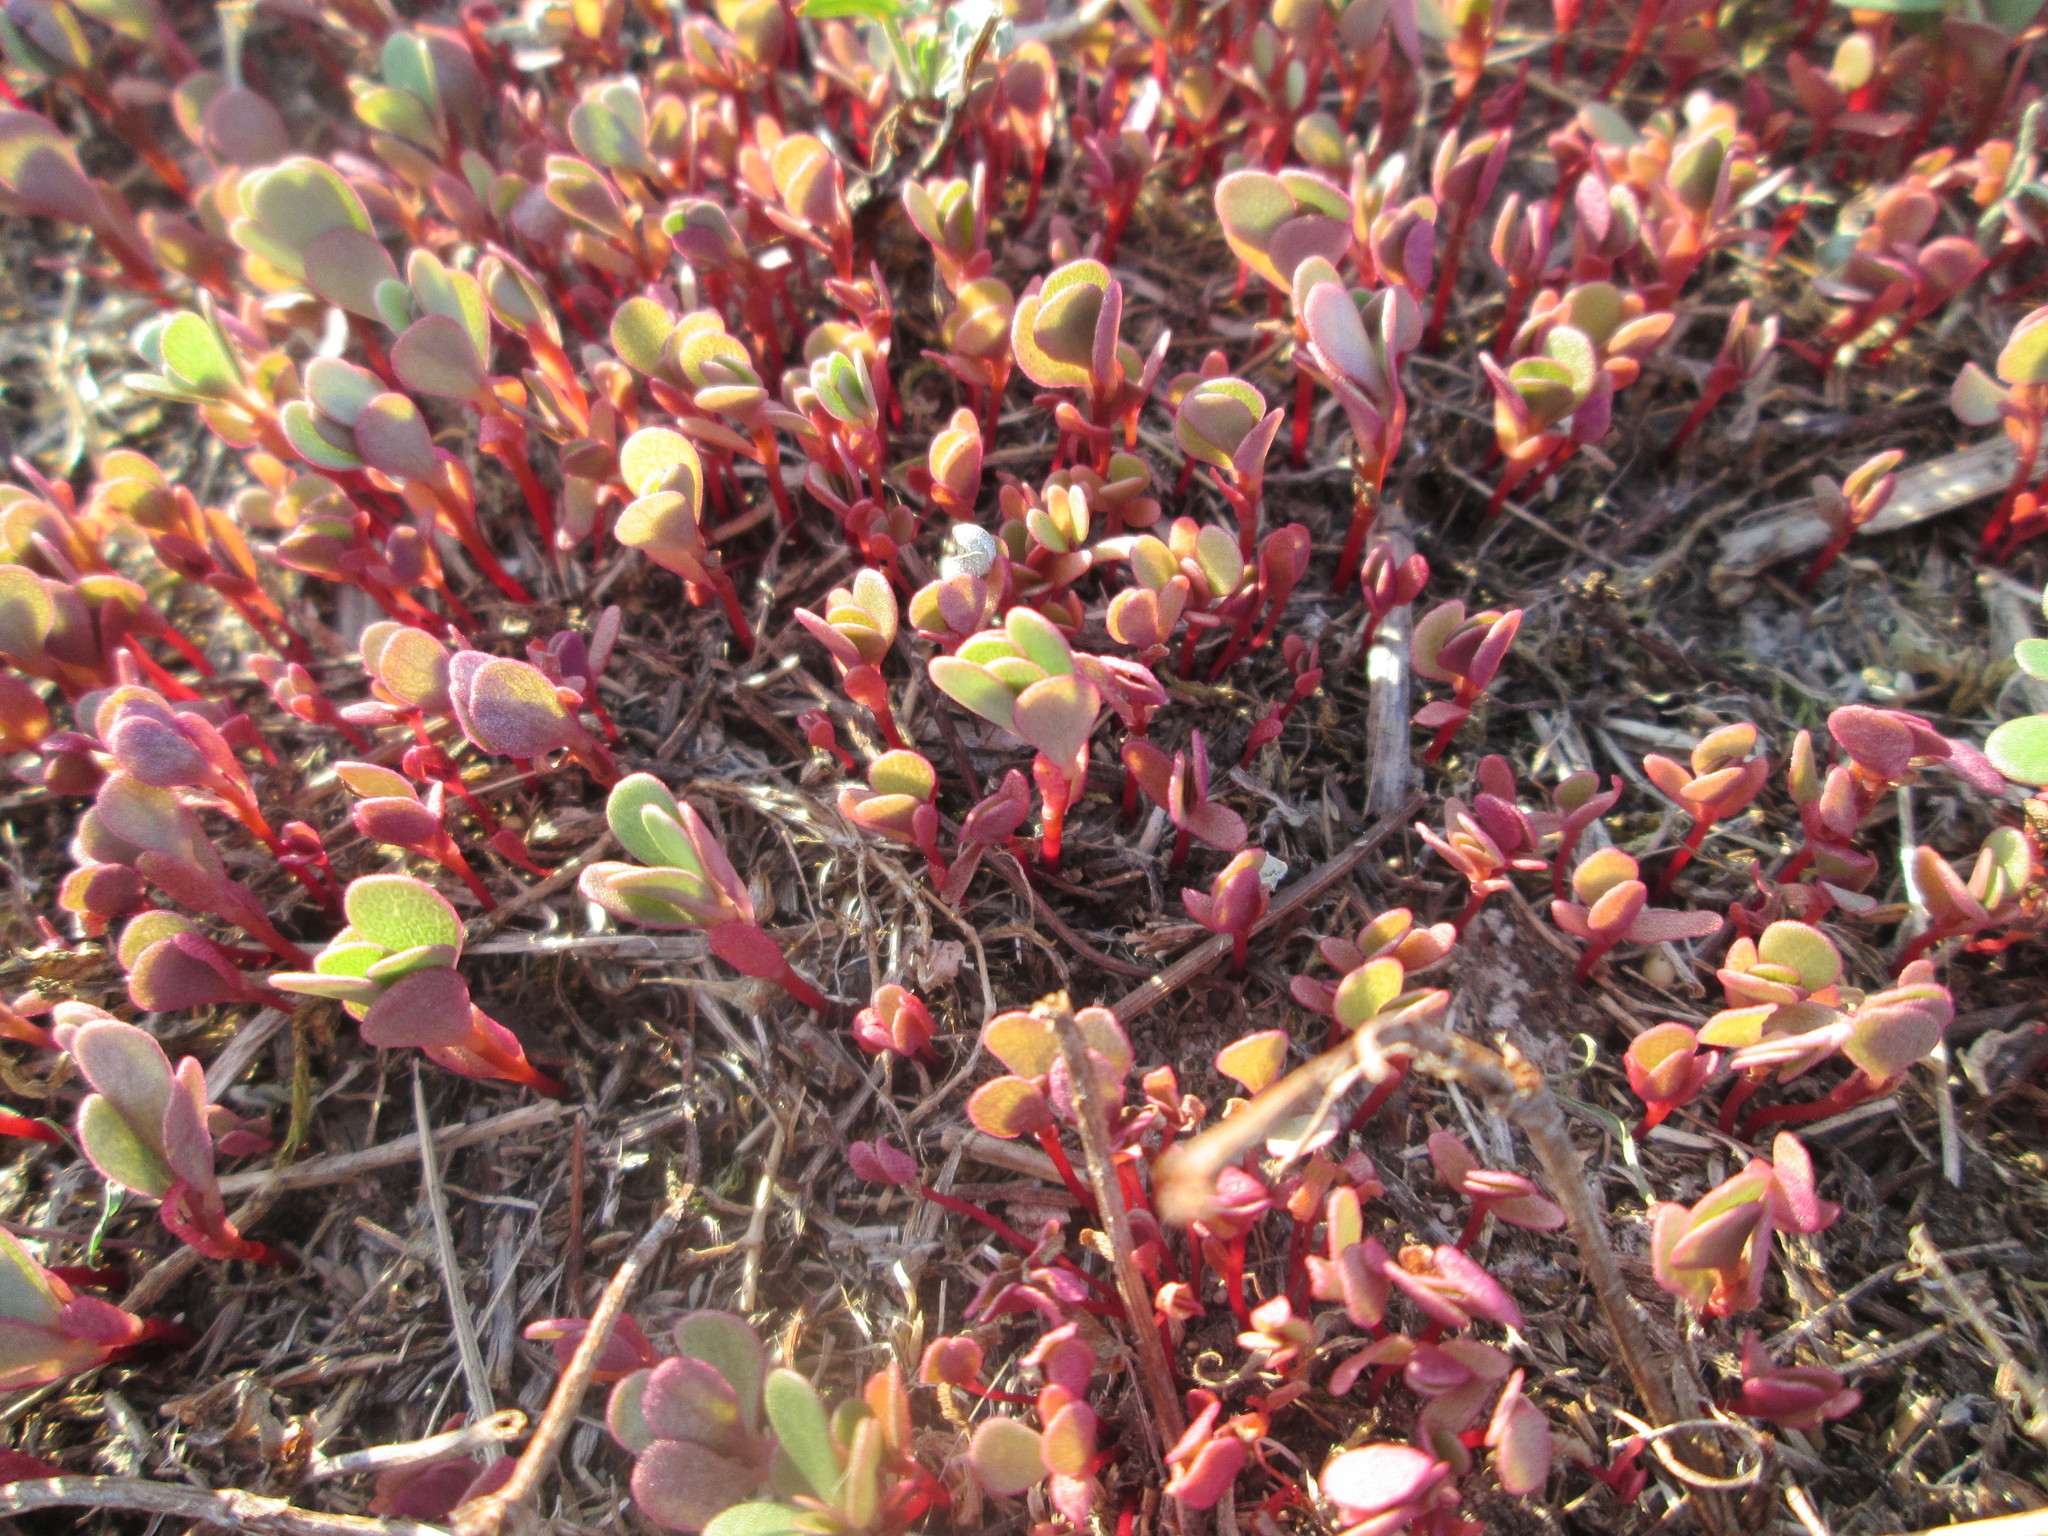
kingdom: Plantae
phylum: Tracheophyta
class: Magnoliopsida
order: Caryophyllales
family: Portulacaceae
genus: Portulaca
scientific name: Portulaca oleracea
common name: Common purslane
